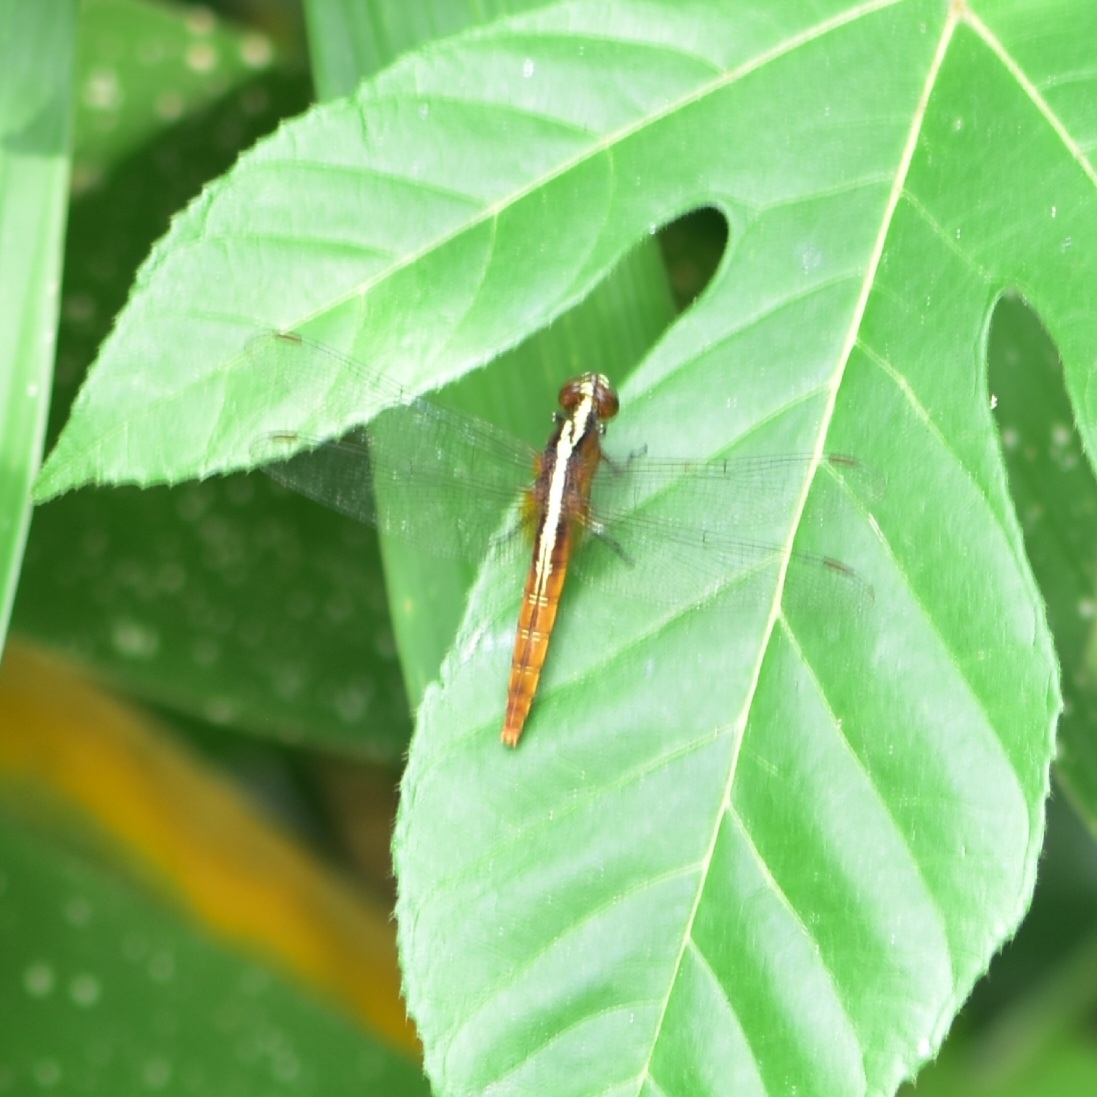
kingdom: Animalia
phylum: Arthropoda
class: Insecta
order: Odonata
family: Libellulidae
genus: Rhodothemis
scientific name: Rhodothemis rufa
